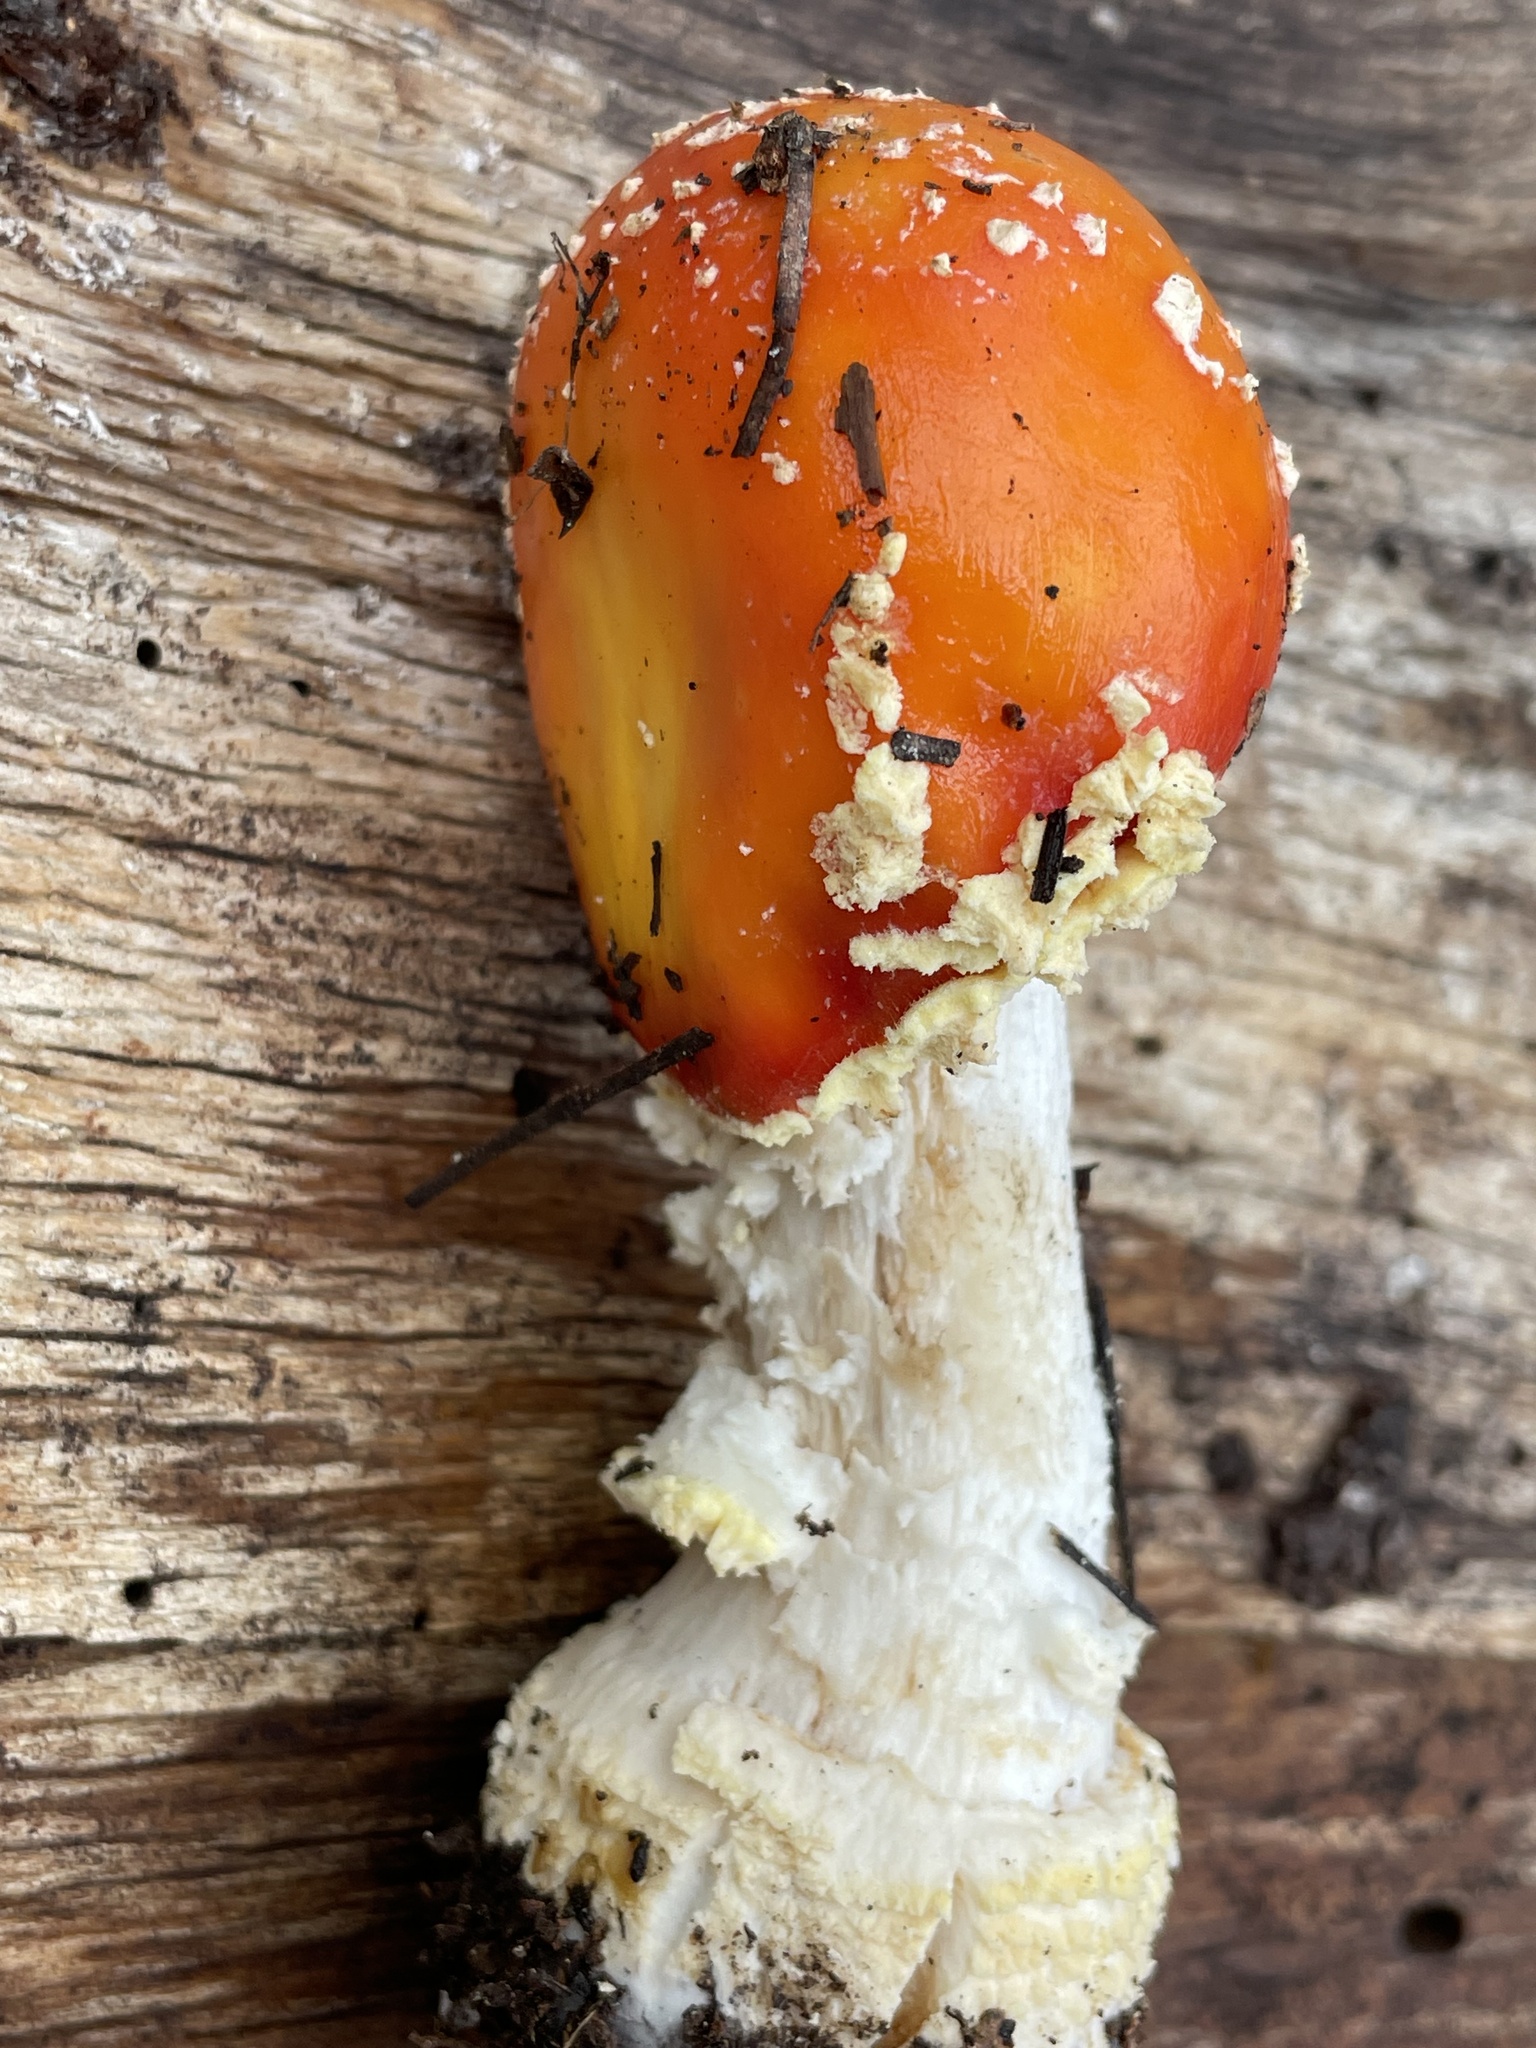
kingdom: Fungi
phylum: Basidiomycota
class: Agaricomycetes
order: Agaricales
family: Amanitaceae
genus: Amanita
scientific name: Amanita muscaria
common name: Fly agaric
